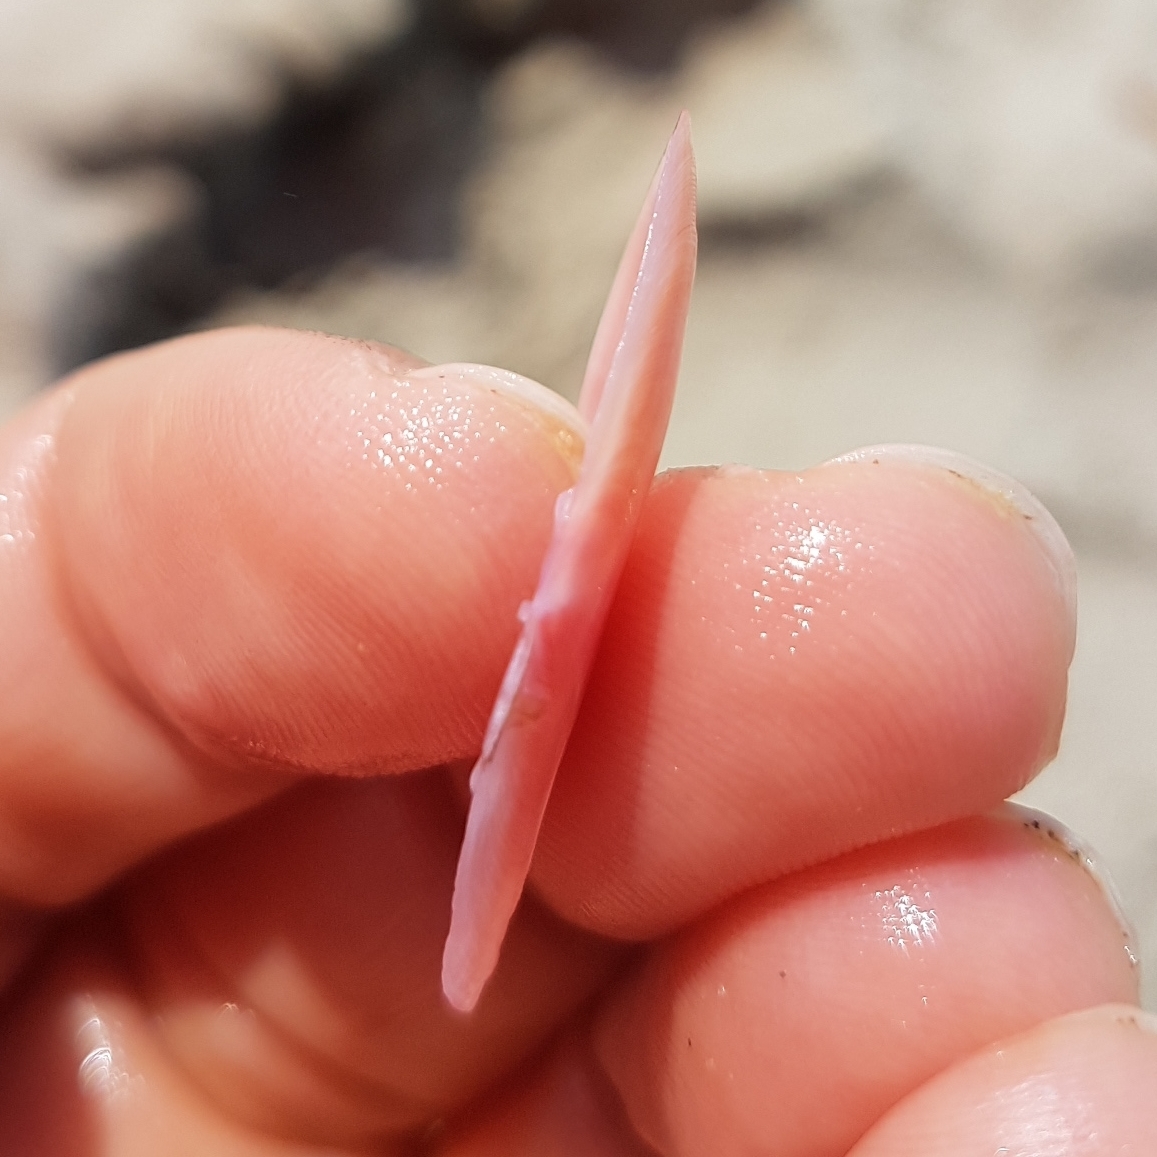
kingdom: Animalia
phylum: Mollusca
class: Bivalvia
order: Cardiida
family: Tellinidae
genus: Moerella
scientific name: Moerella pulchella
